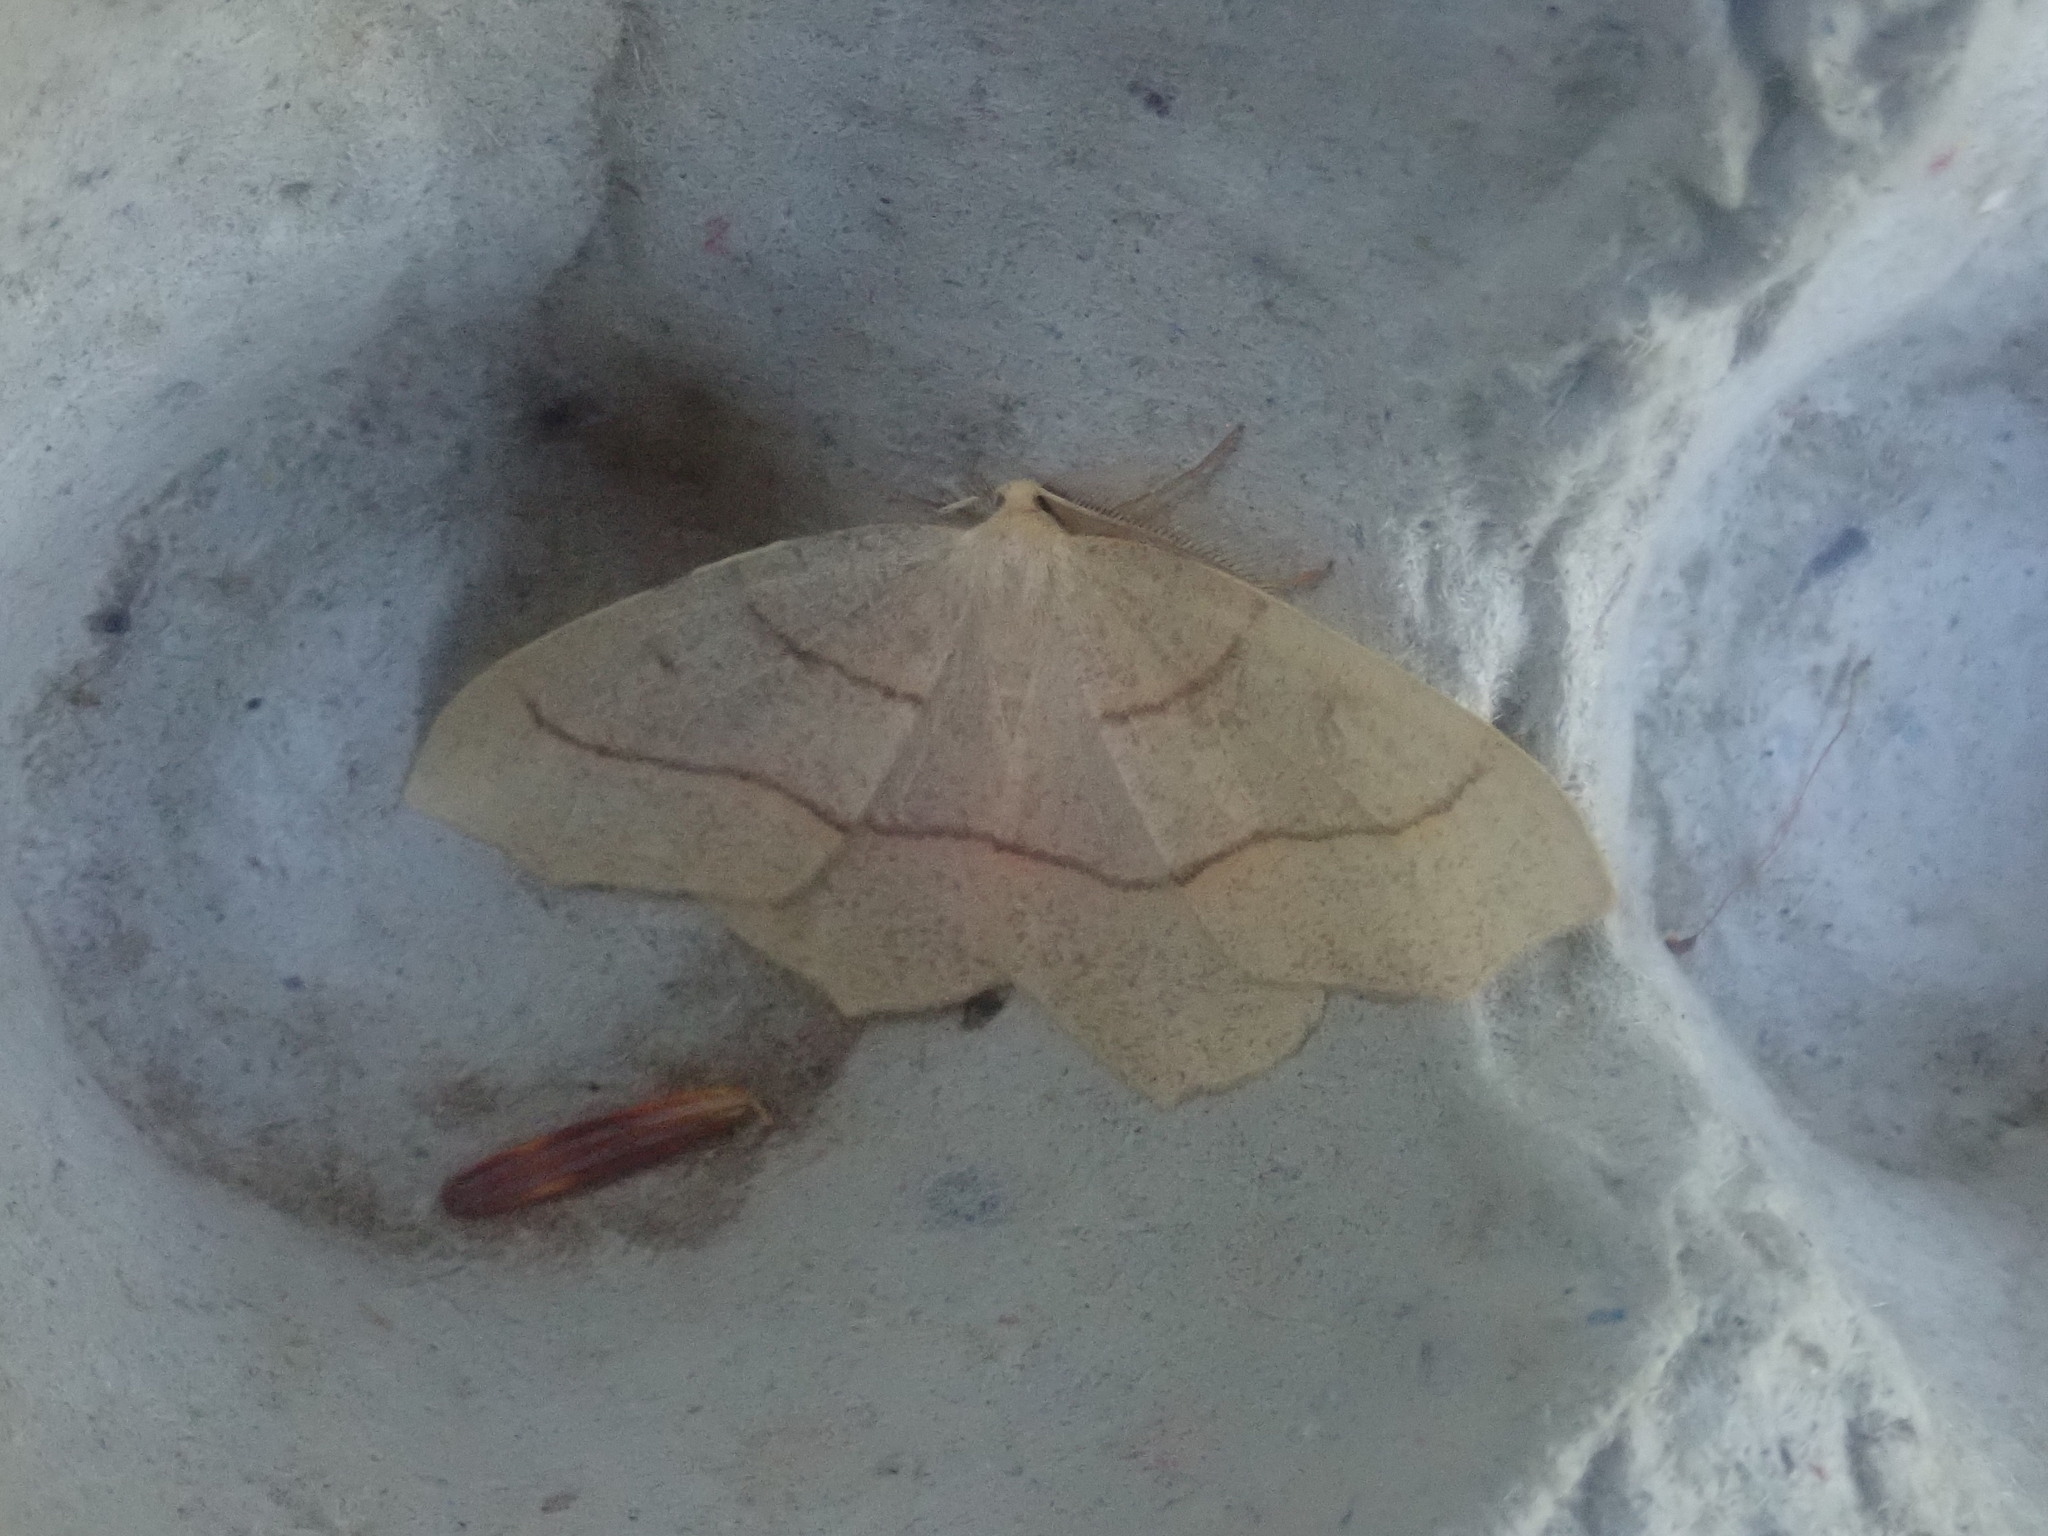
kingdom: Animalia
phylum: Arthropoda
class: Insecta
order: Lepidoptera
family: Geometridae
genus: Lambdina
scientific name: Lambdina fiscellaria
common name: Hemlock looper
